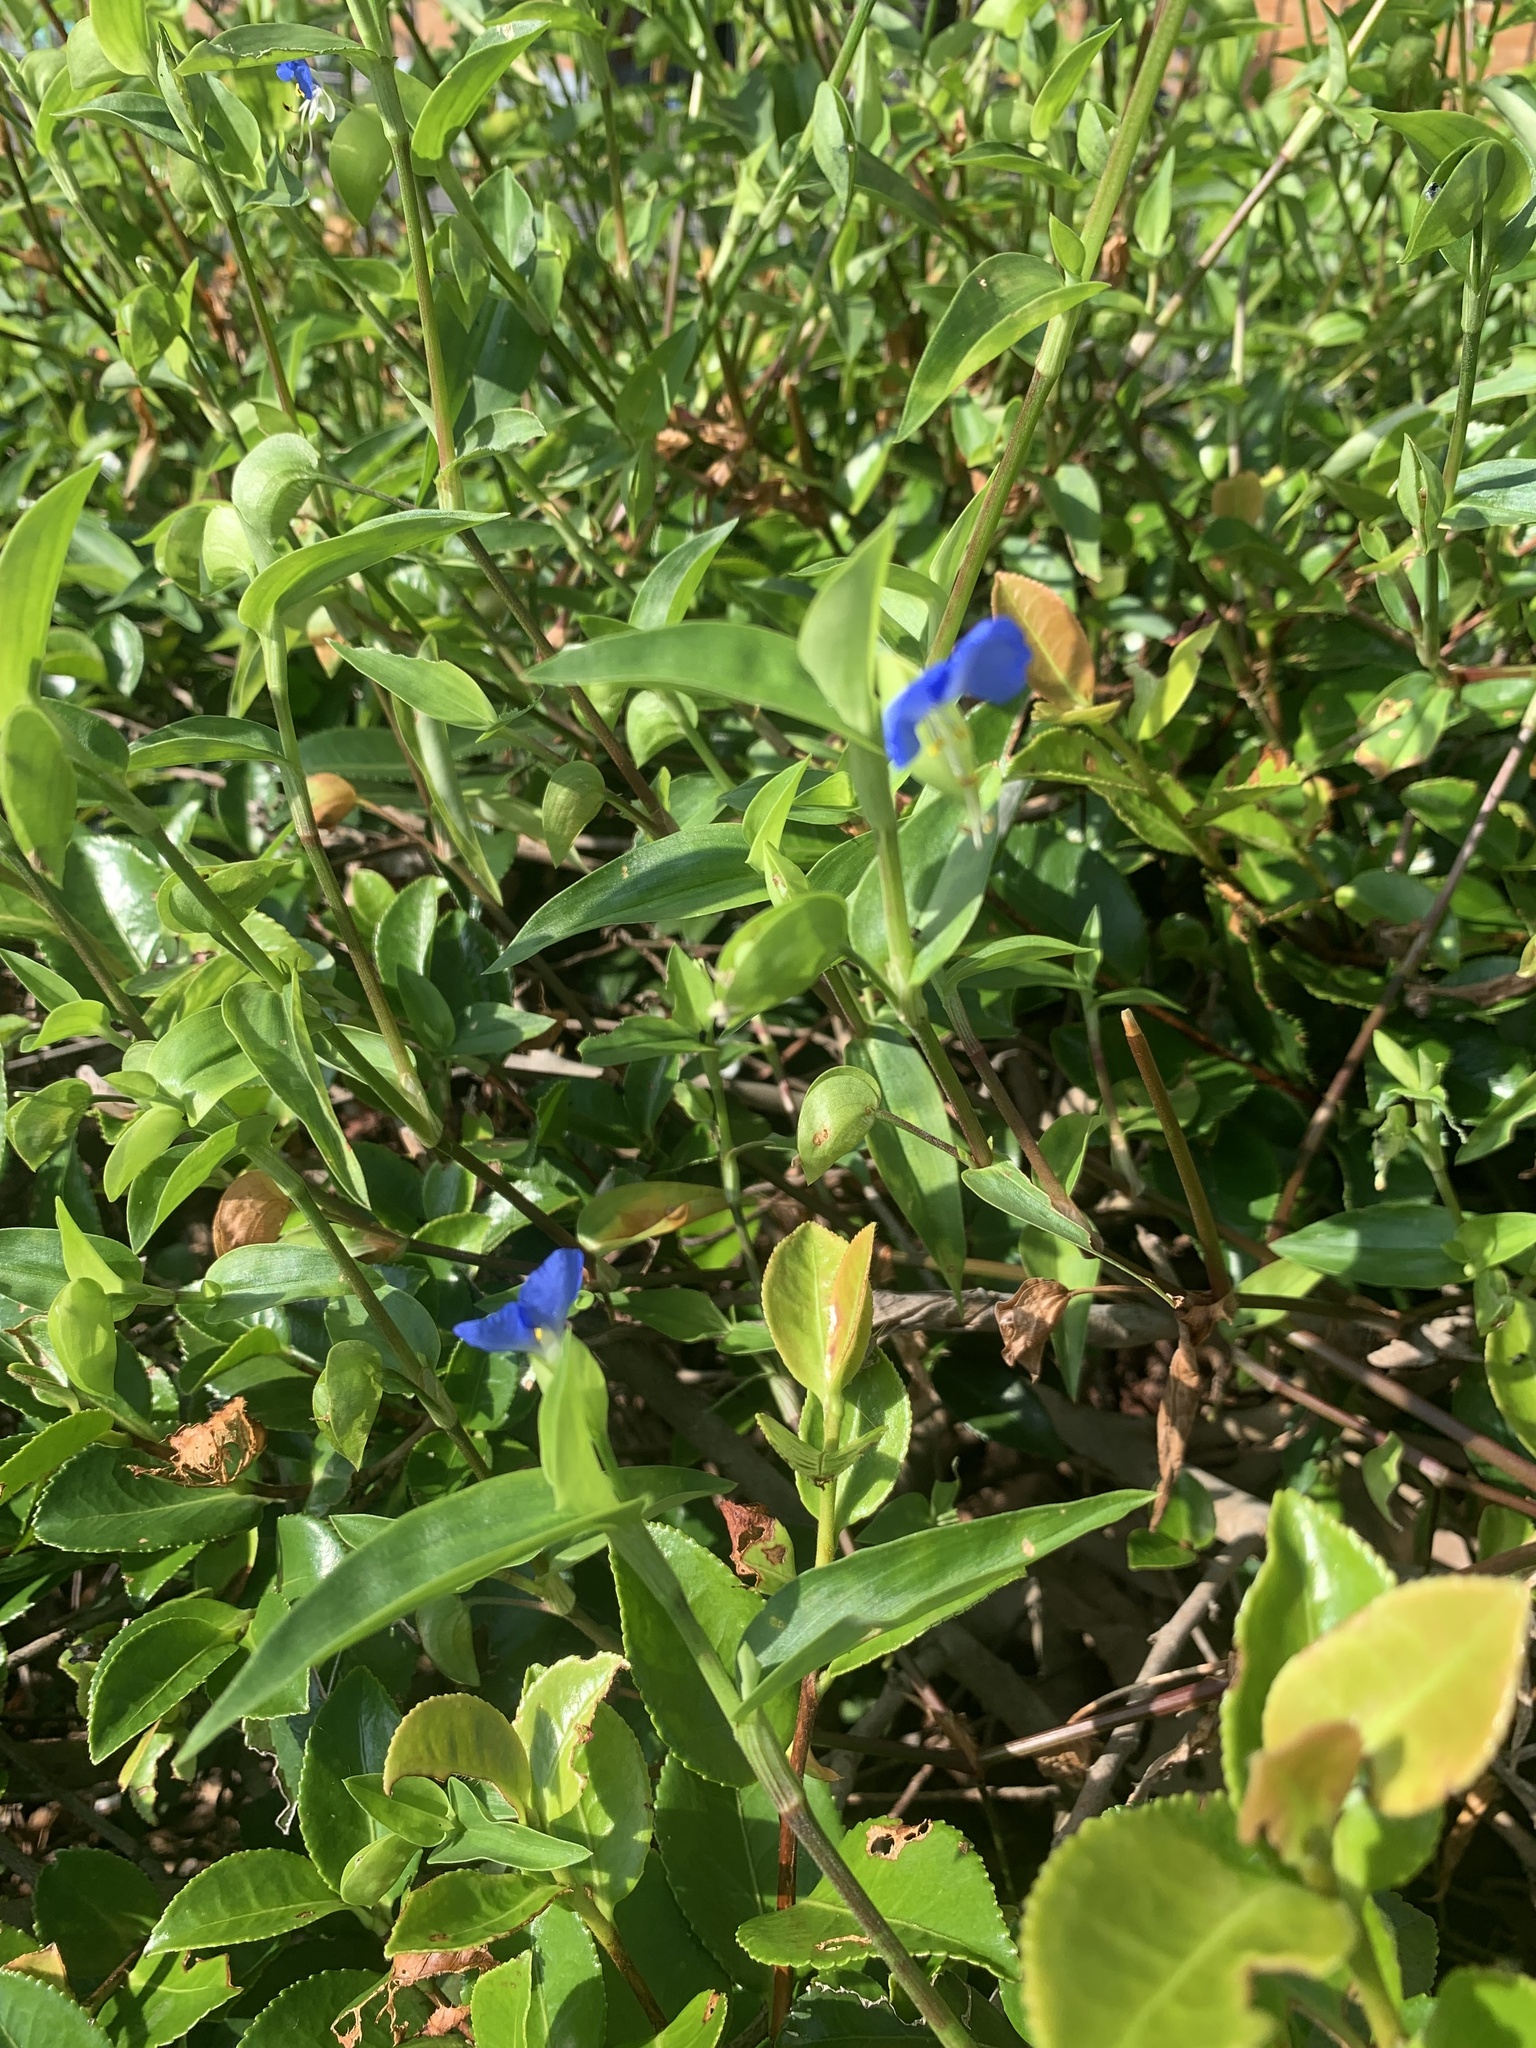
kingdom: Plantae
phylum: Tracheophyta
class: Liliopsida
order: Commelinales
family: Commelinaceae
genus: Commelina
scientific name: Commelina communis
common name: Asiatic dayflower
